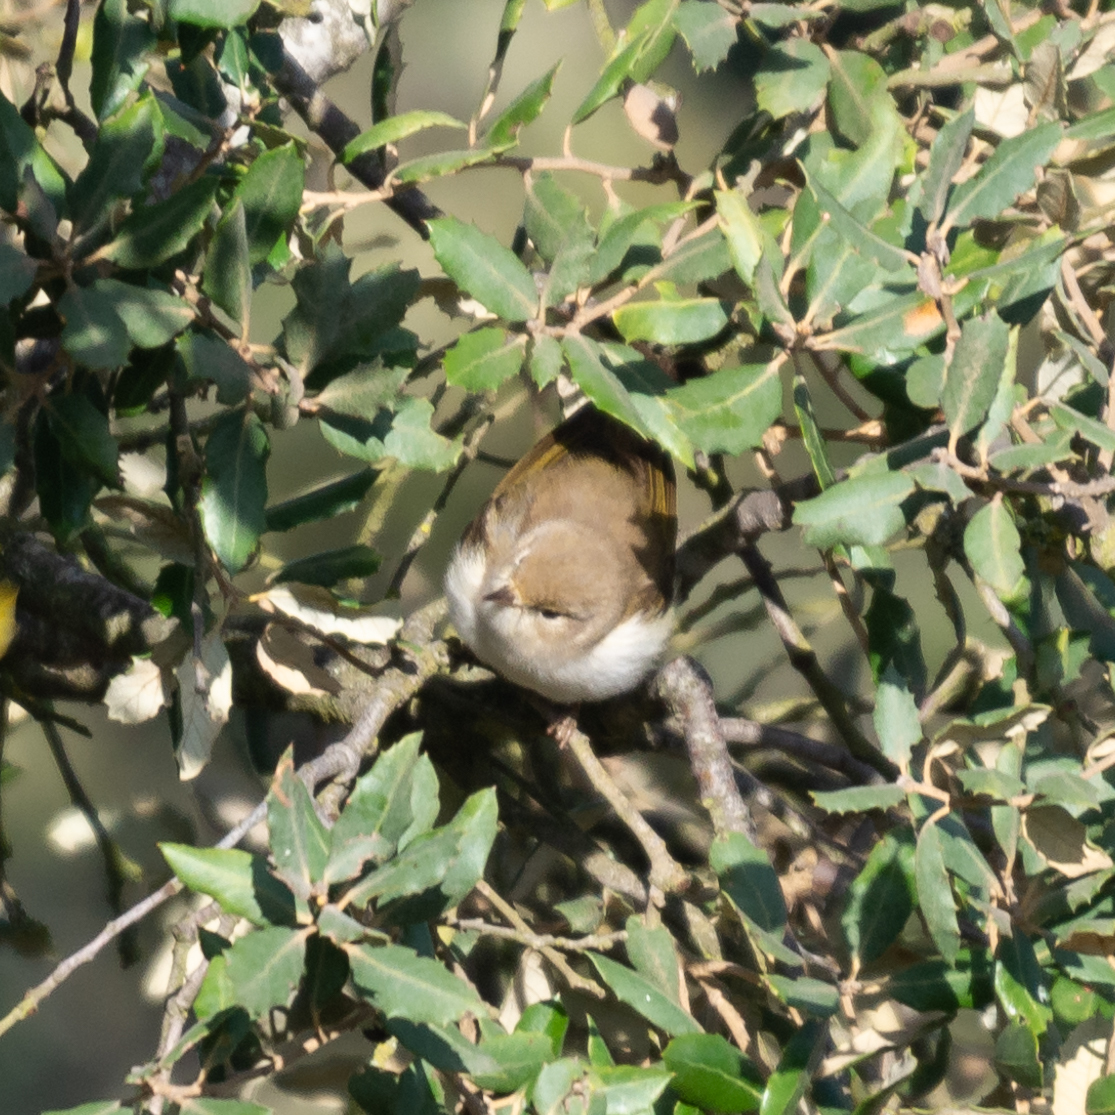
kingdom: Animalia
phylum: Chordata
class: Aves
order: Passeriformes
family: Phylloscopidae
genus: Phylloscopus
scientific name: Phylloscopus bonelli
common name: Western bonelli's warbler
